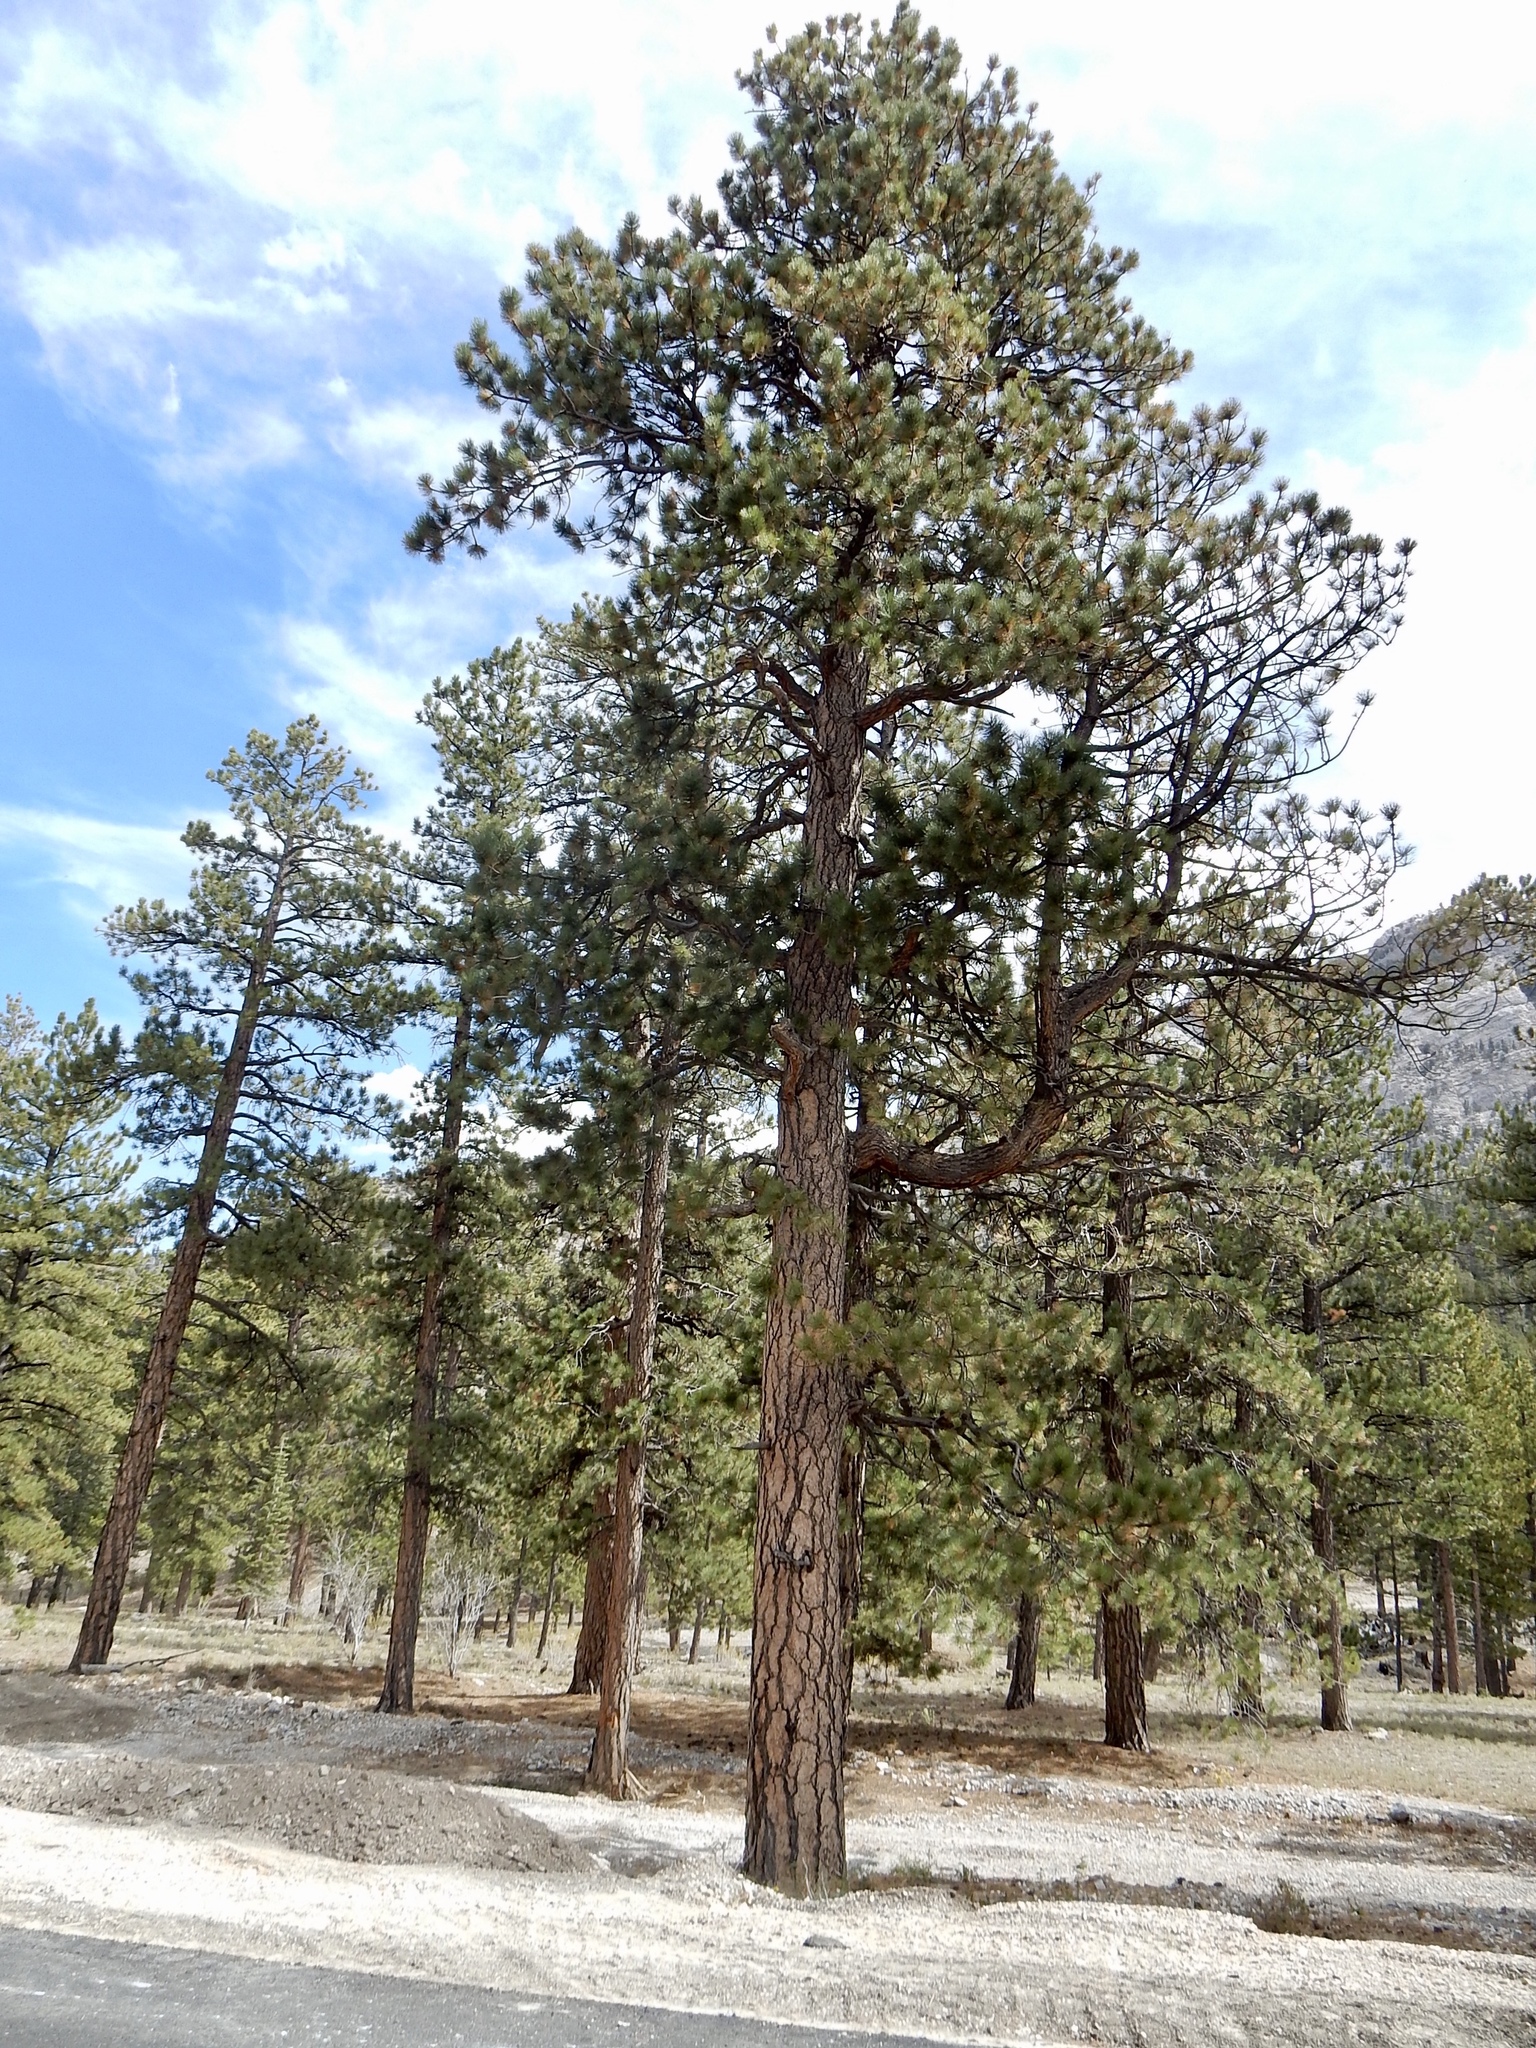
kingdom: Plantae
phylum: Tracheophyta
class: Pinopsida
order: Pinales
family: Pinaceae
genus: Pinus
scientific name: Pinus ponderosa
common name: Western yellow-pine
